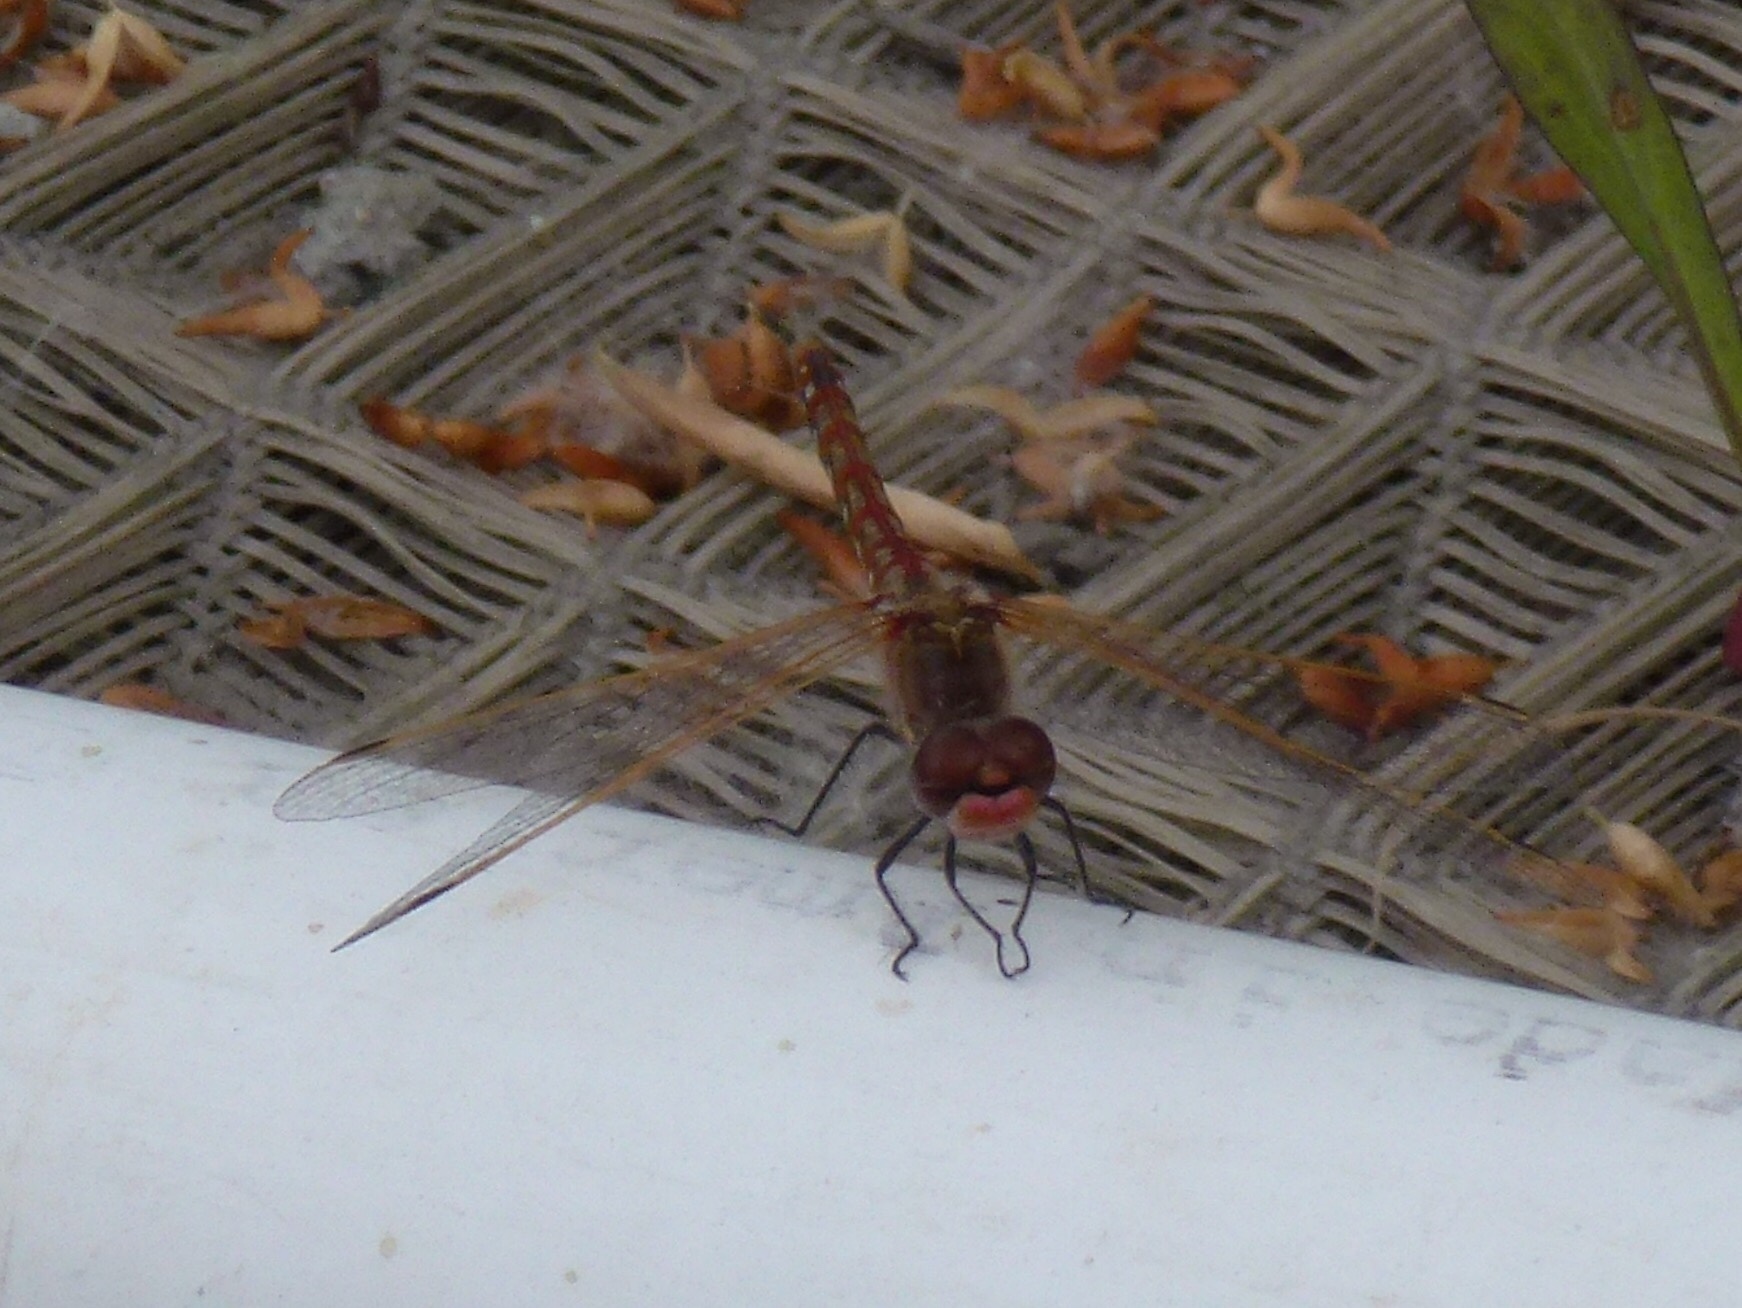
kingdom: Animalia
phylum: Arthropoda
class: Insecta
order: Odonata
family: Libellulidae
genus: Sympetrum
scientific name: Sympetrum corruptum
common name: Variegated meadowhawk
